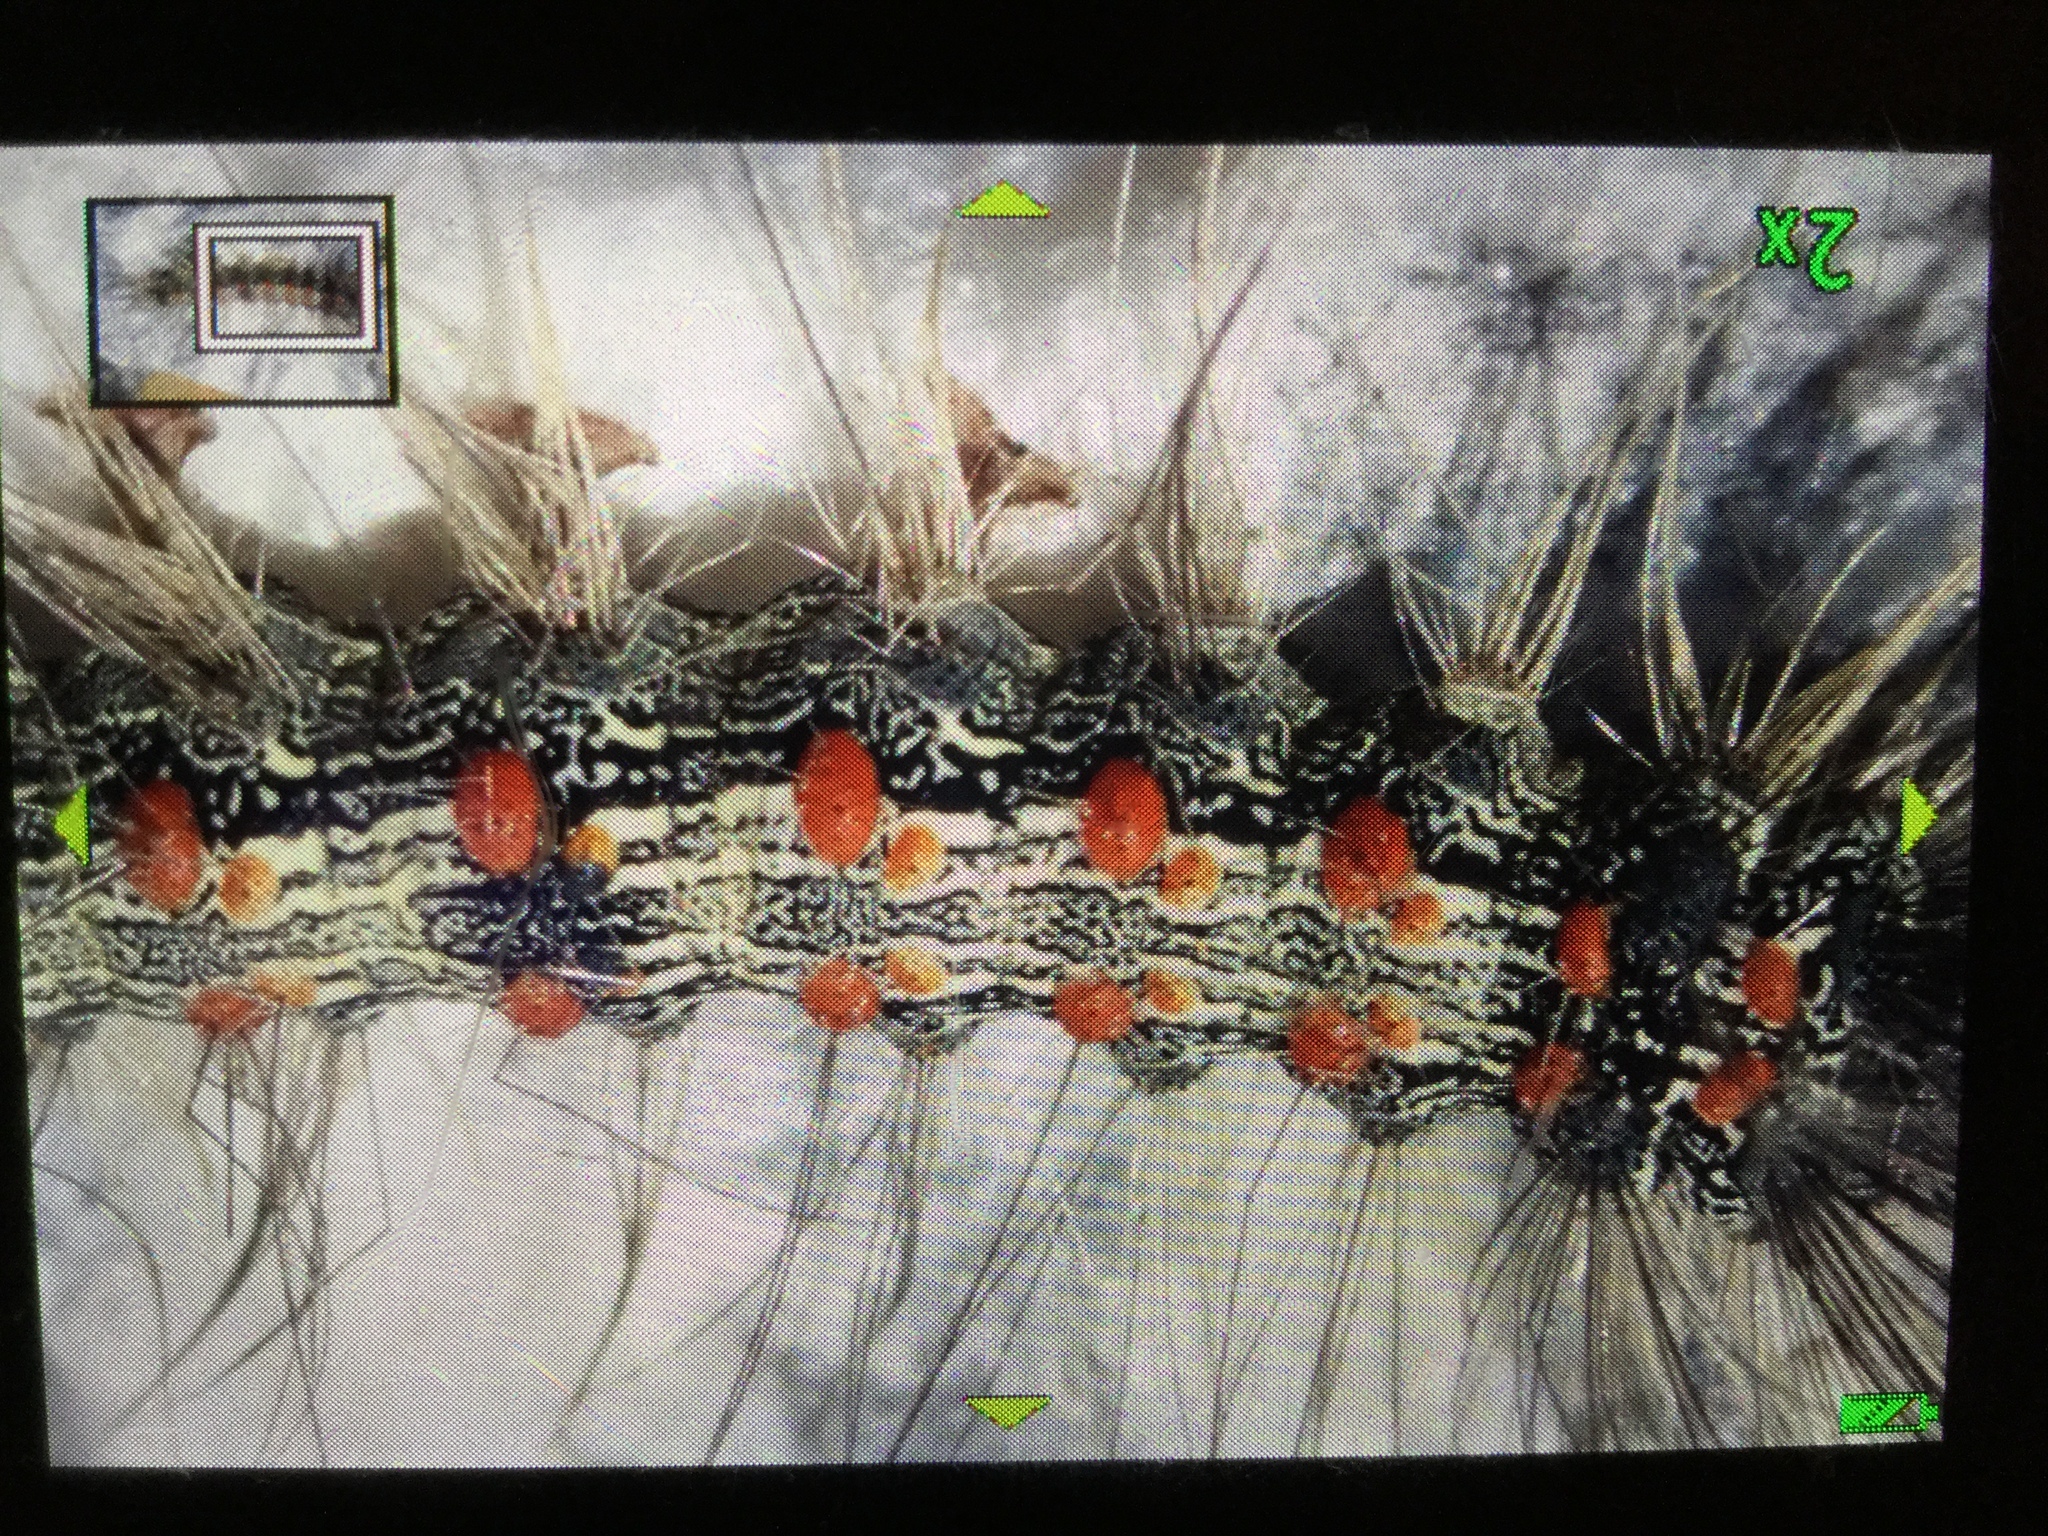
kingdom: Animalia
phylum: Arthropoda
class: Insecta
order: Lepidoptera
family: Erebidae
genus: Lithosia
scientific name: Lithosia quadra
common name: Four-spotted footman
